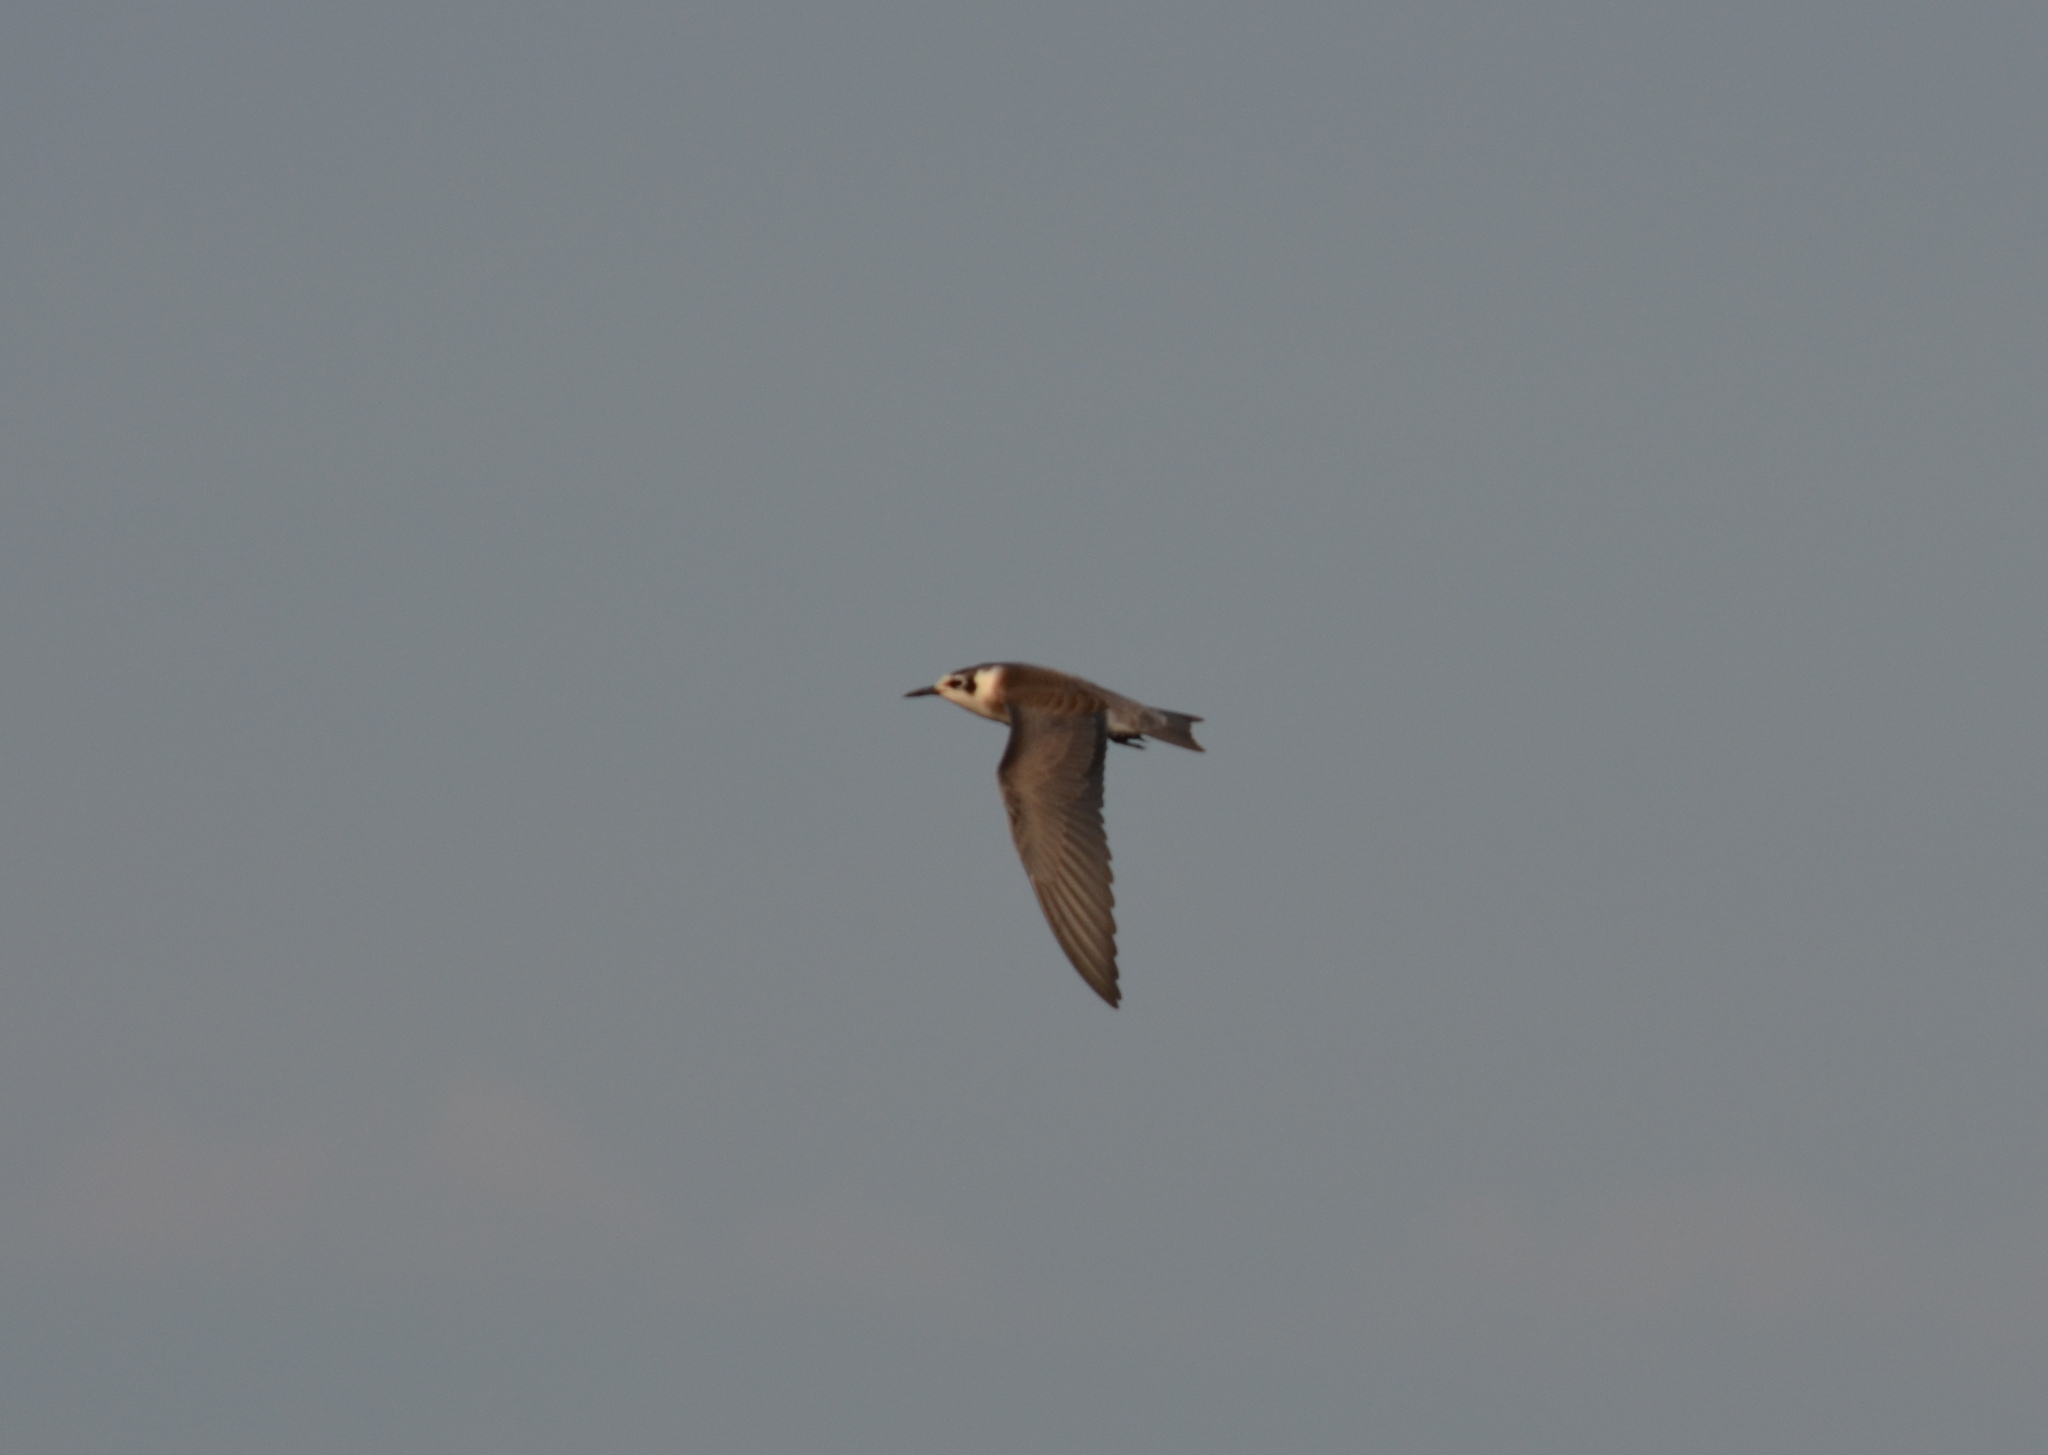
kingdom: Animalia
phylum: Chordata
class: Aves
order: Charadriiformes
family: Laridae
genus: Chlidonias
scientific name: Chlidonias niger
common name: Black tern
